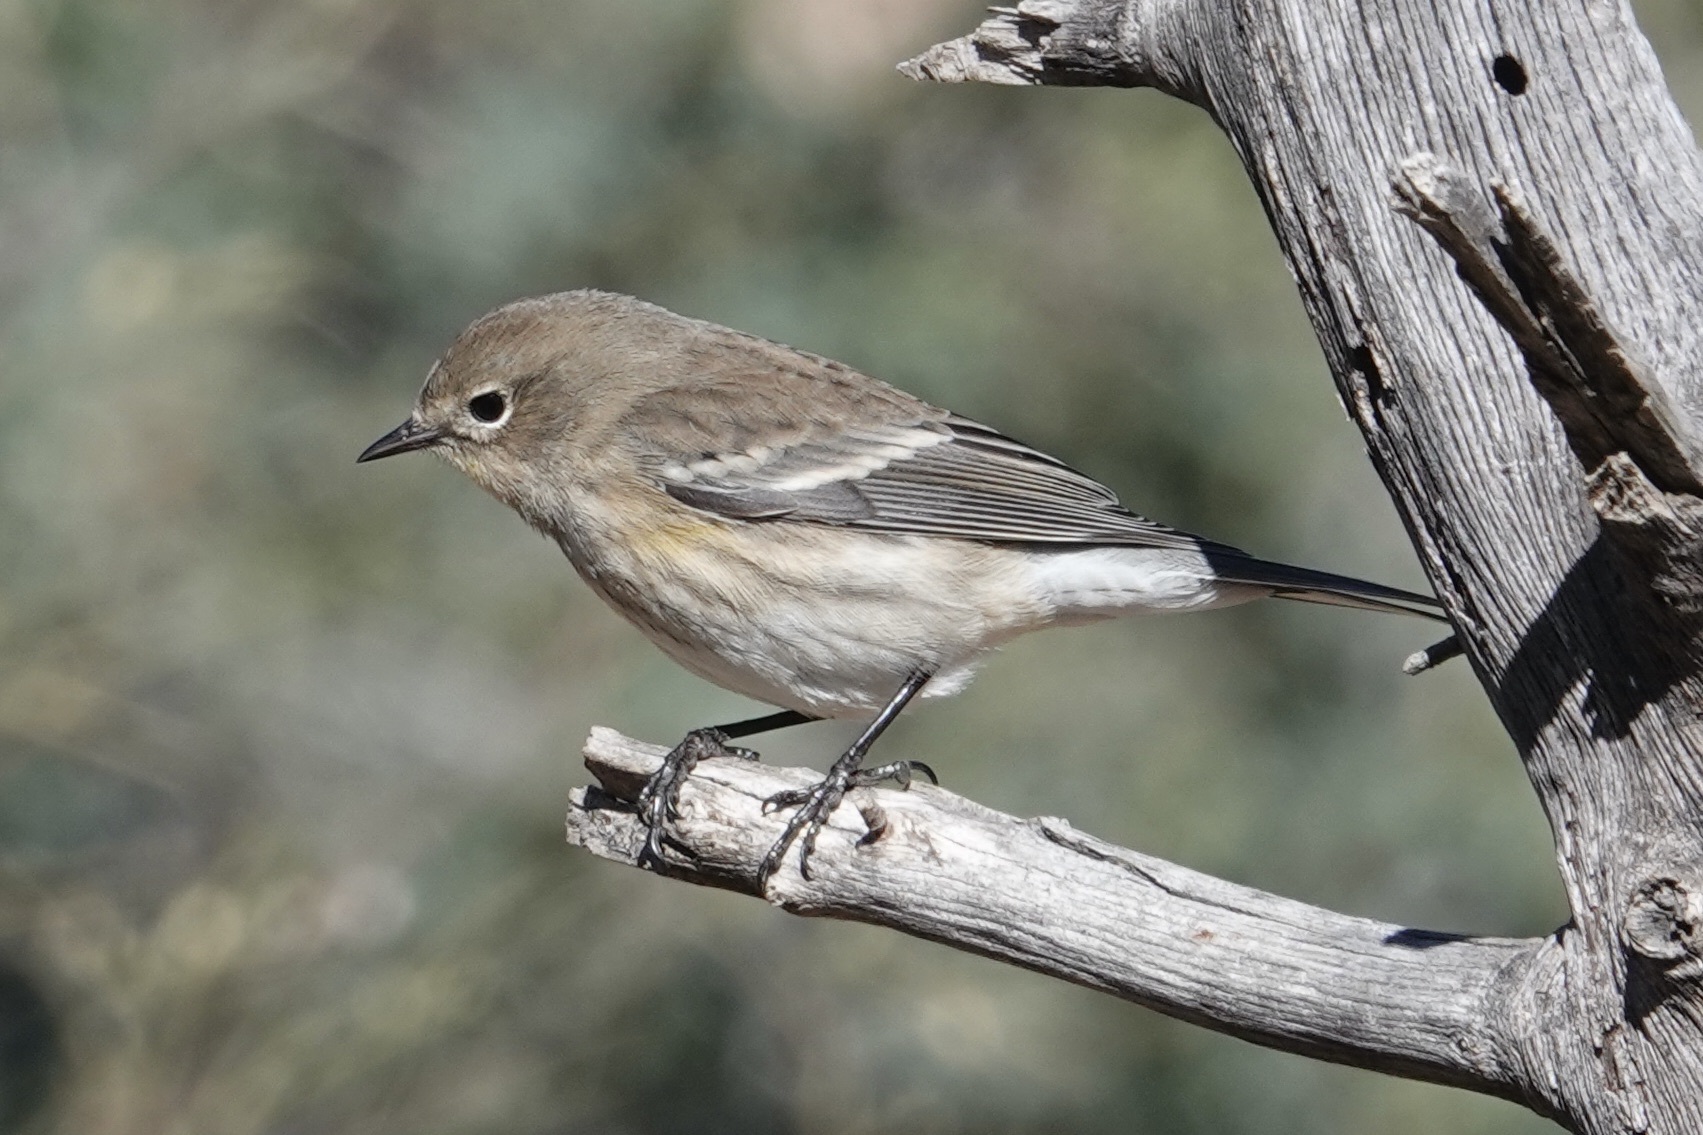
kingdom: Animalia
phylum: Chordata
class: Aves
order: Passeriformes
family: Parulidae
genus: Setophaga
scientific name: Setophaga coronata
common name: Myrtle warbler
